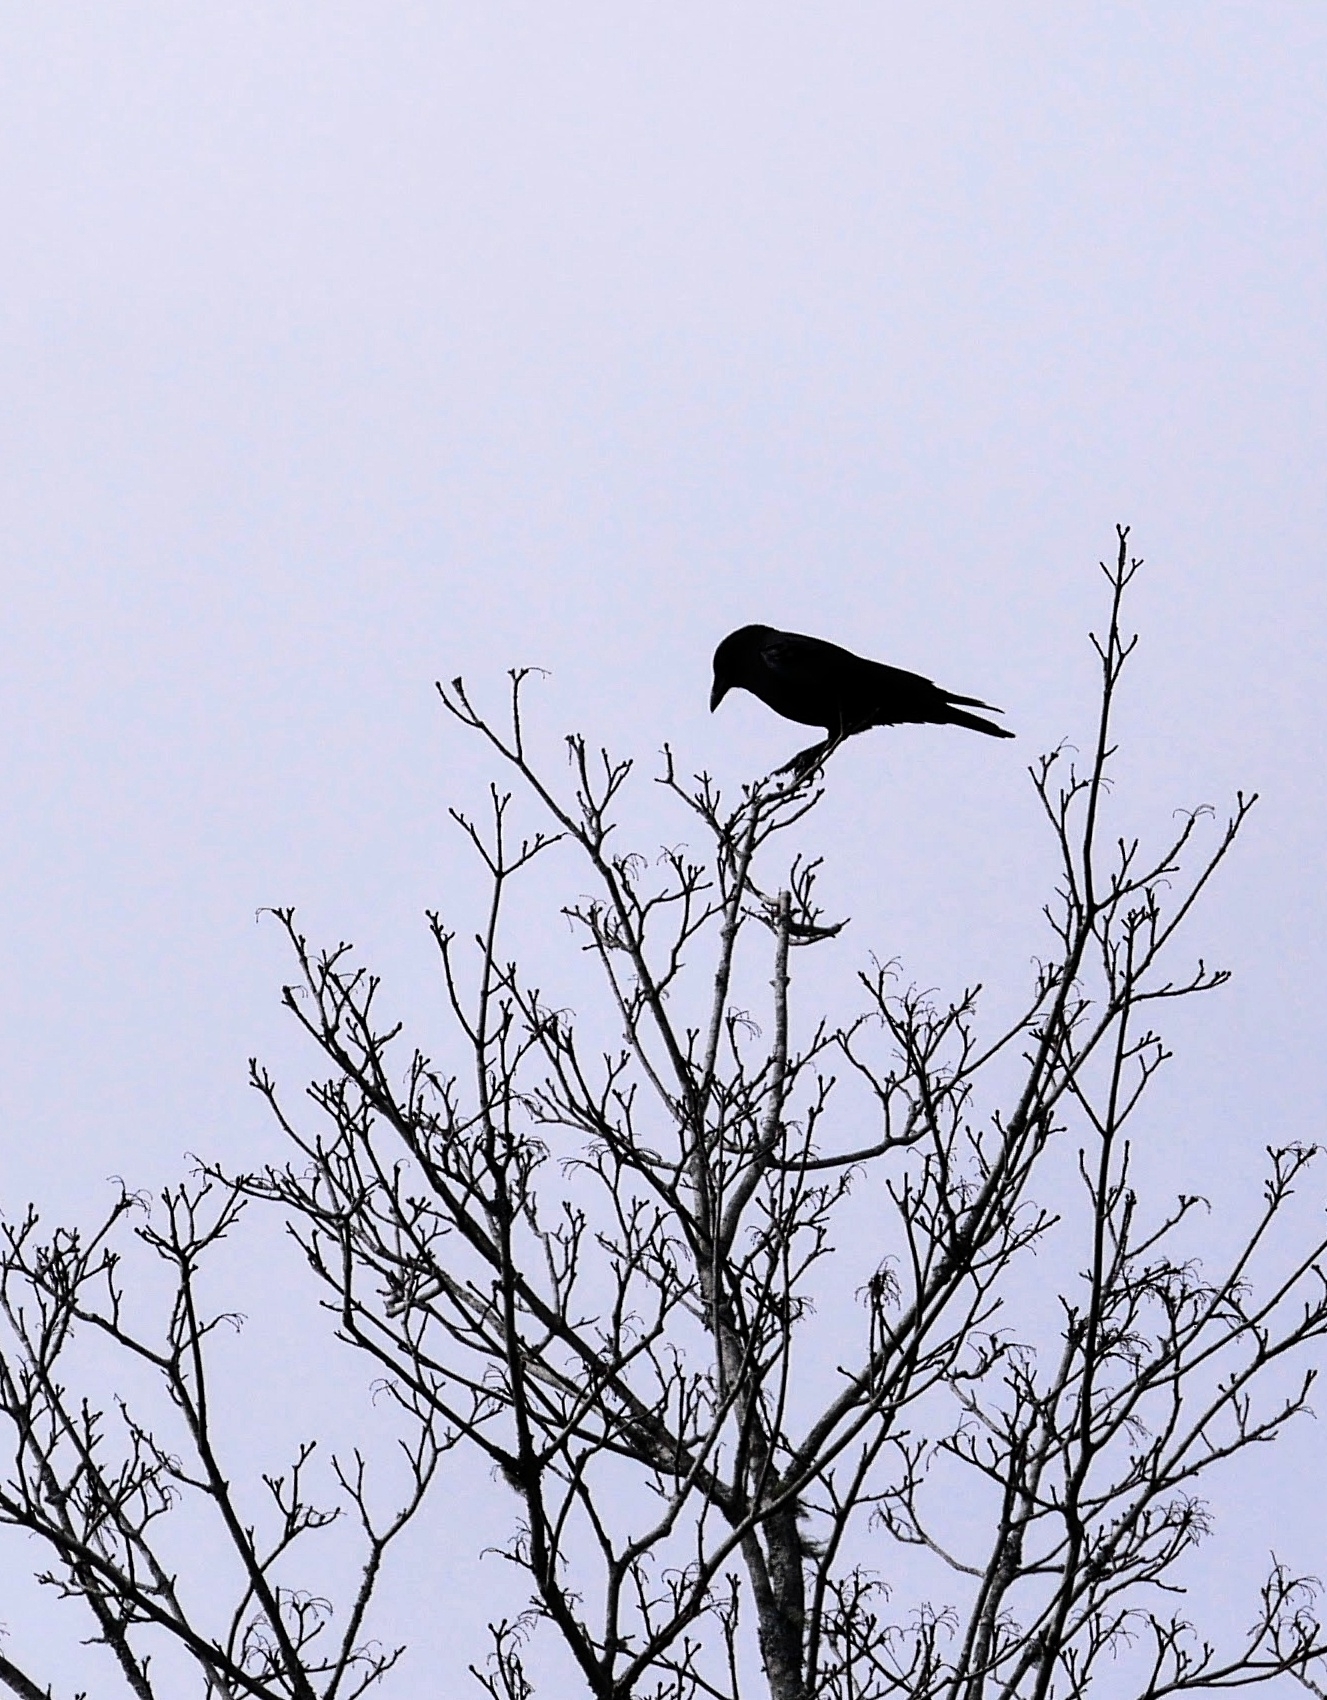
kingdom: Animalia
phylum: Chordata
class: Aves
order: Passeriformes
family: Corvidae
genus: Corvus
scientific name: Corvus brachyrhynchos
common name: American crow
